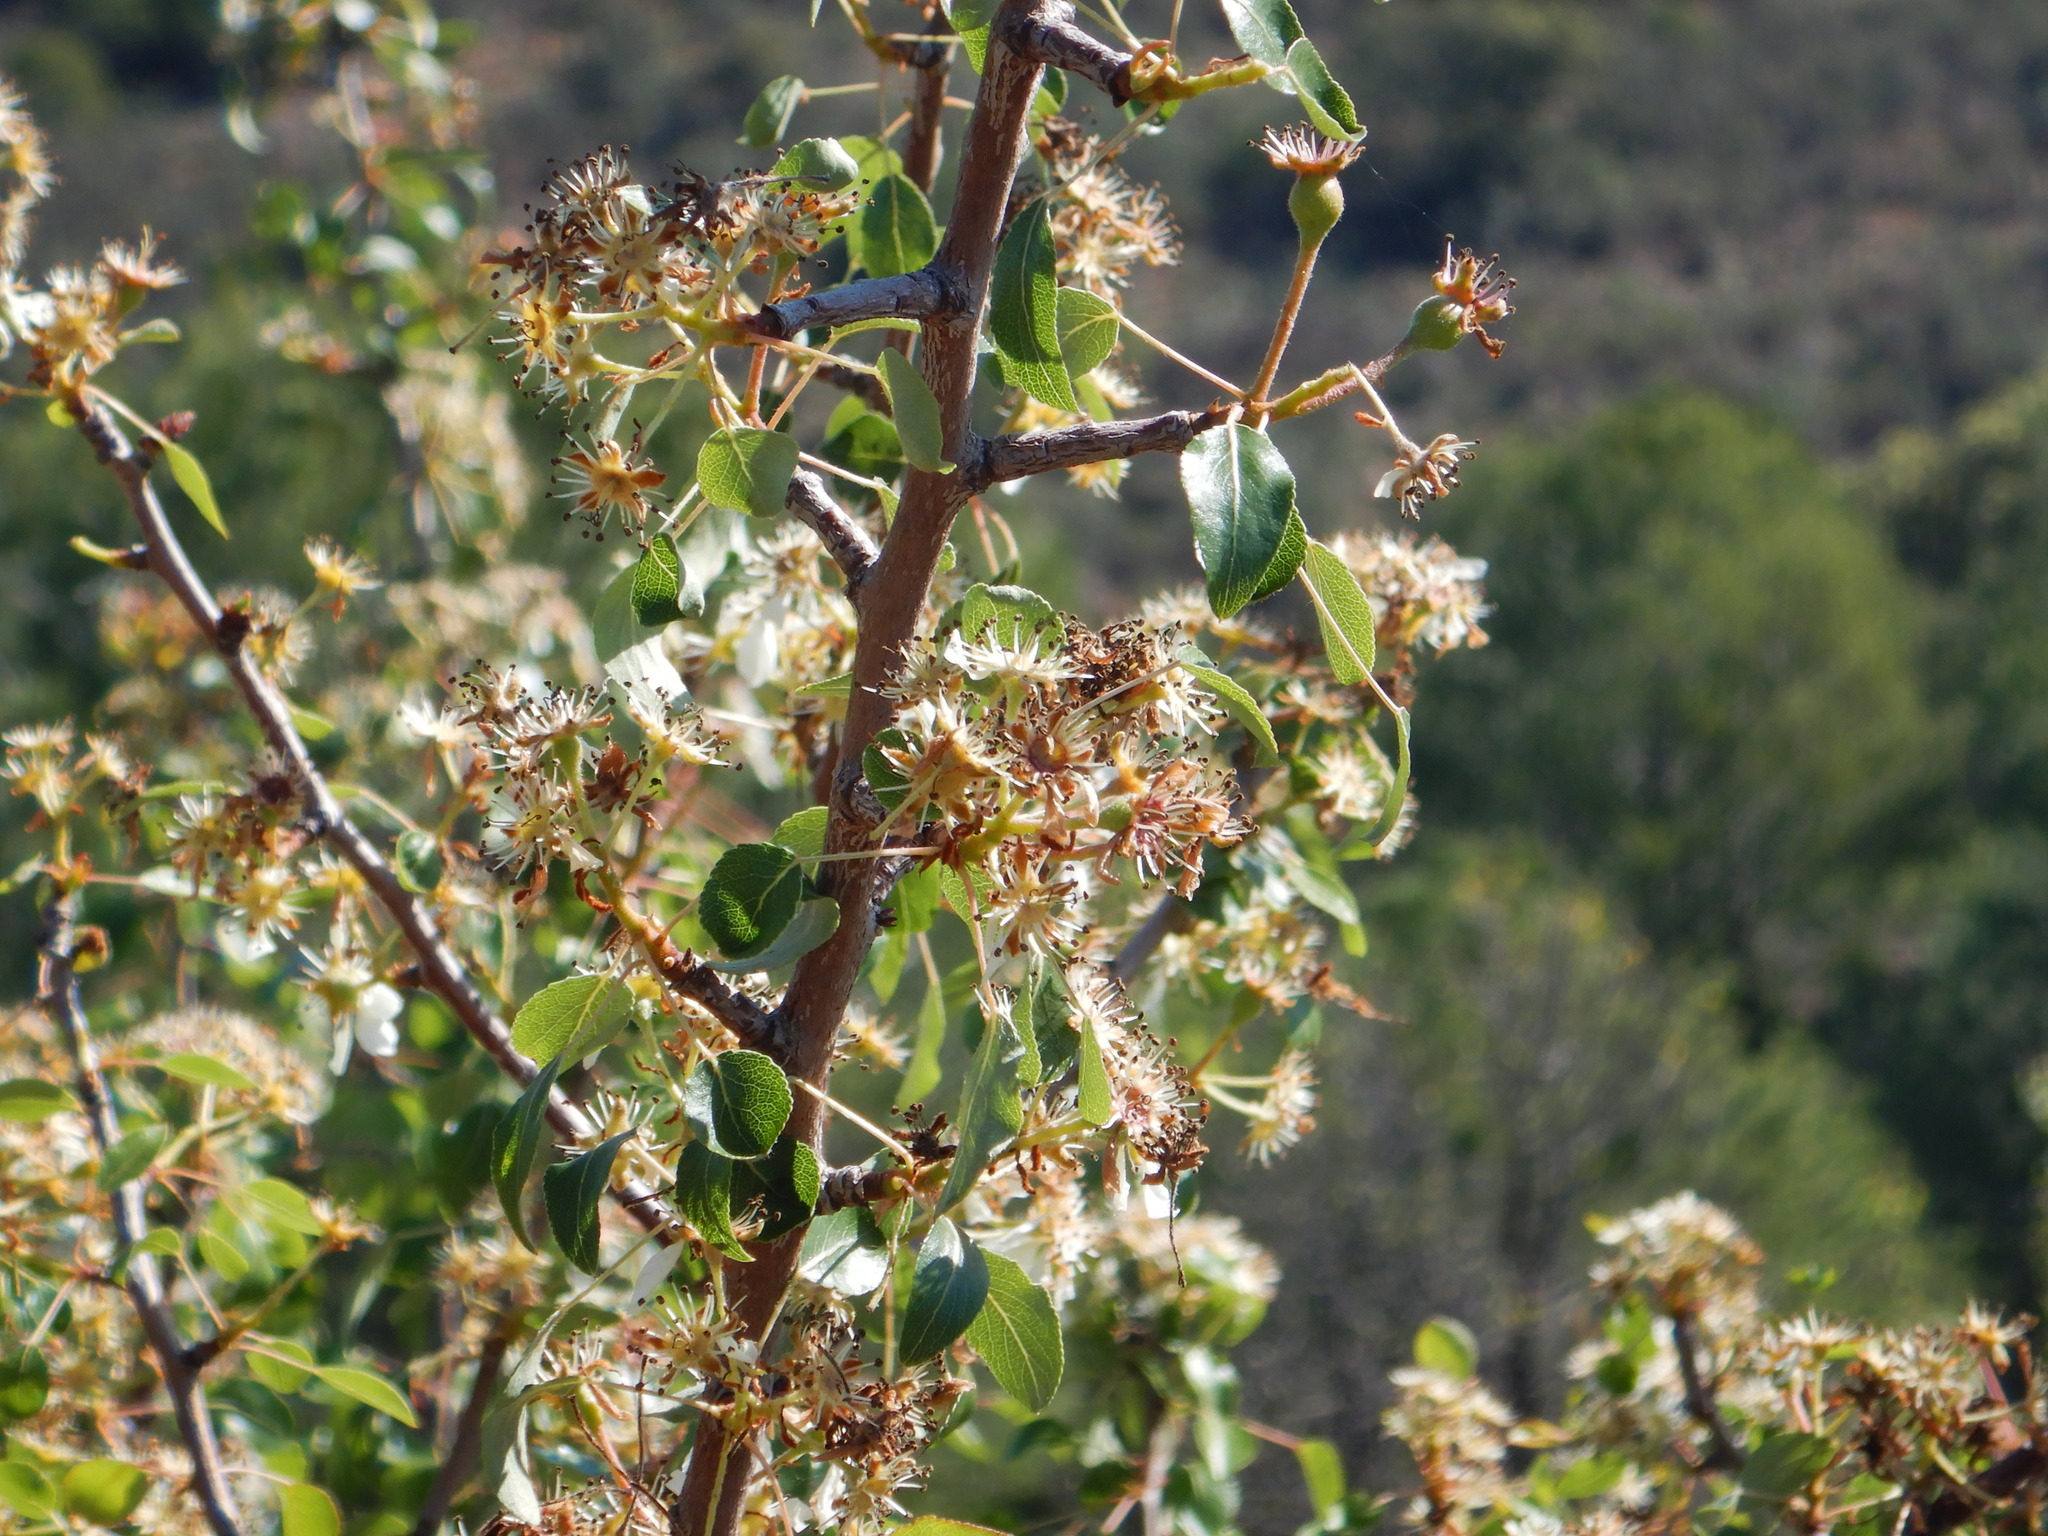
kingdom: Plantae
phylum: Tracheophyta
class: Magnoliopsida
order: Rosales
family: Rosaceae
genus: Pyrus
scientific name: Pyrus bourgaeana
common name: Iberian pear
